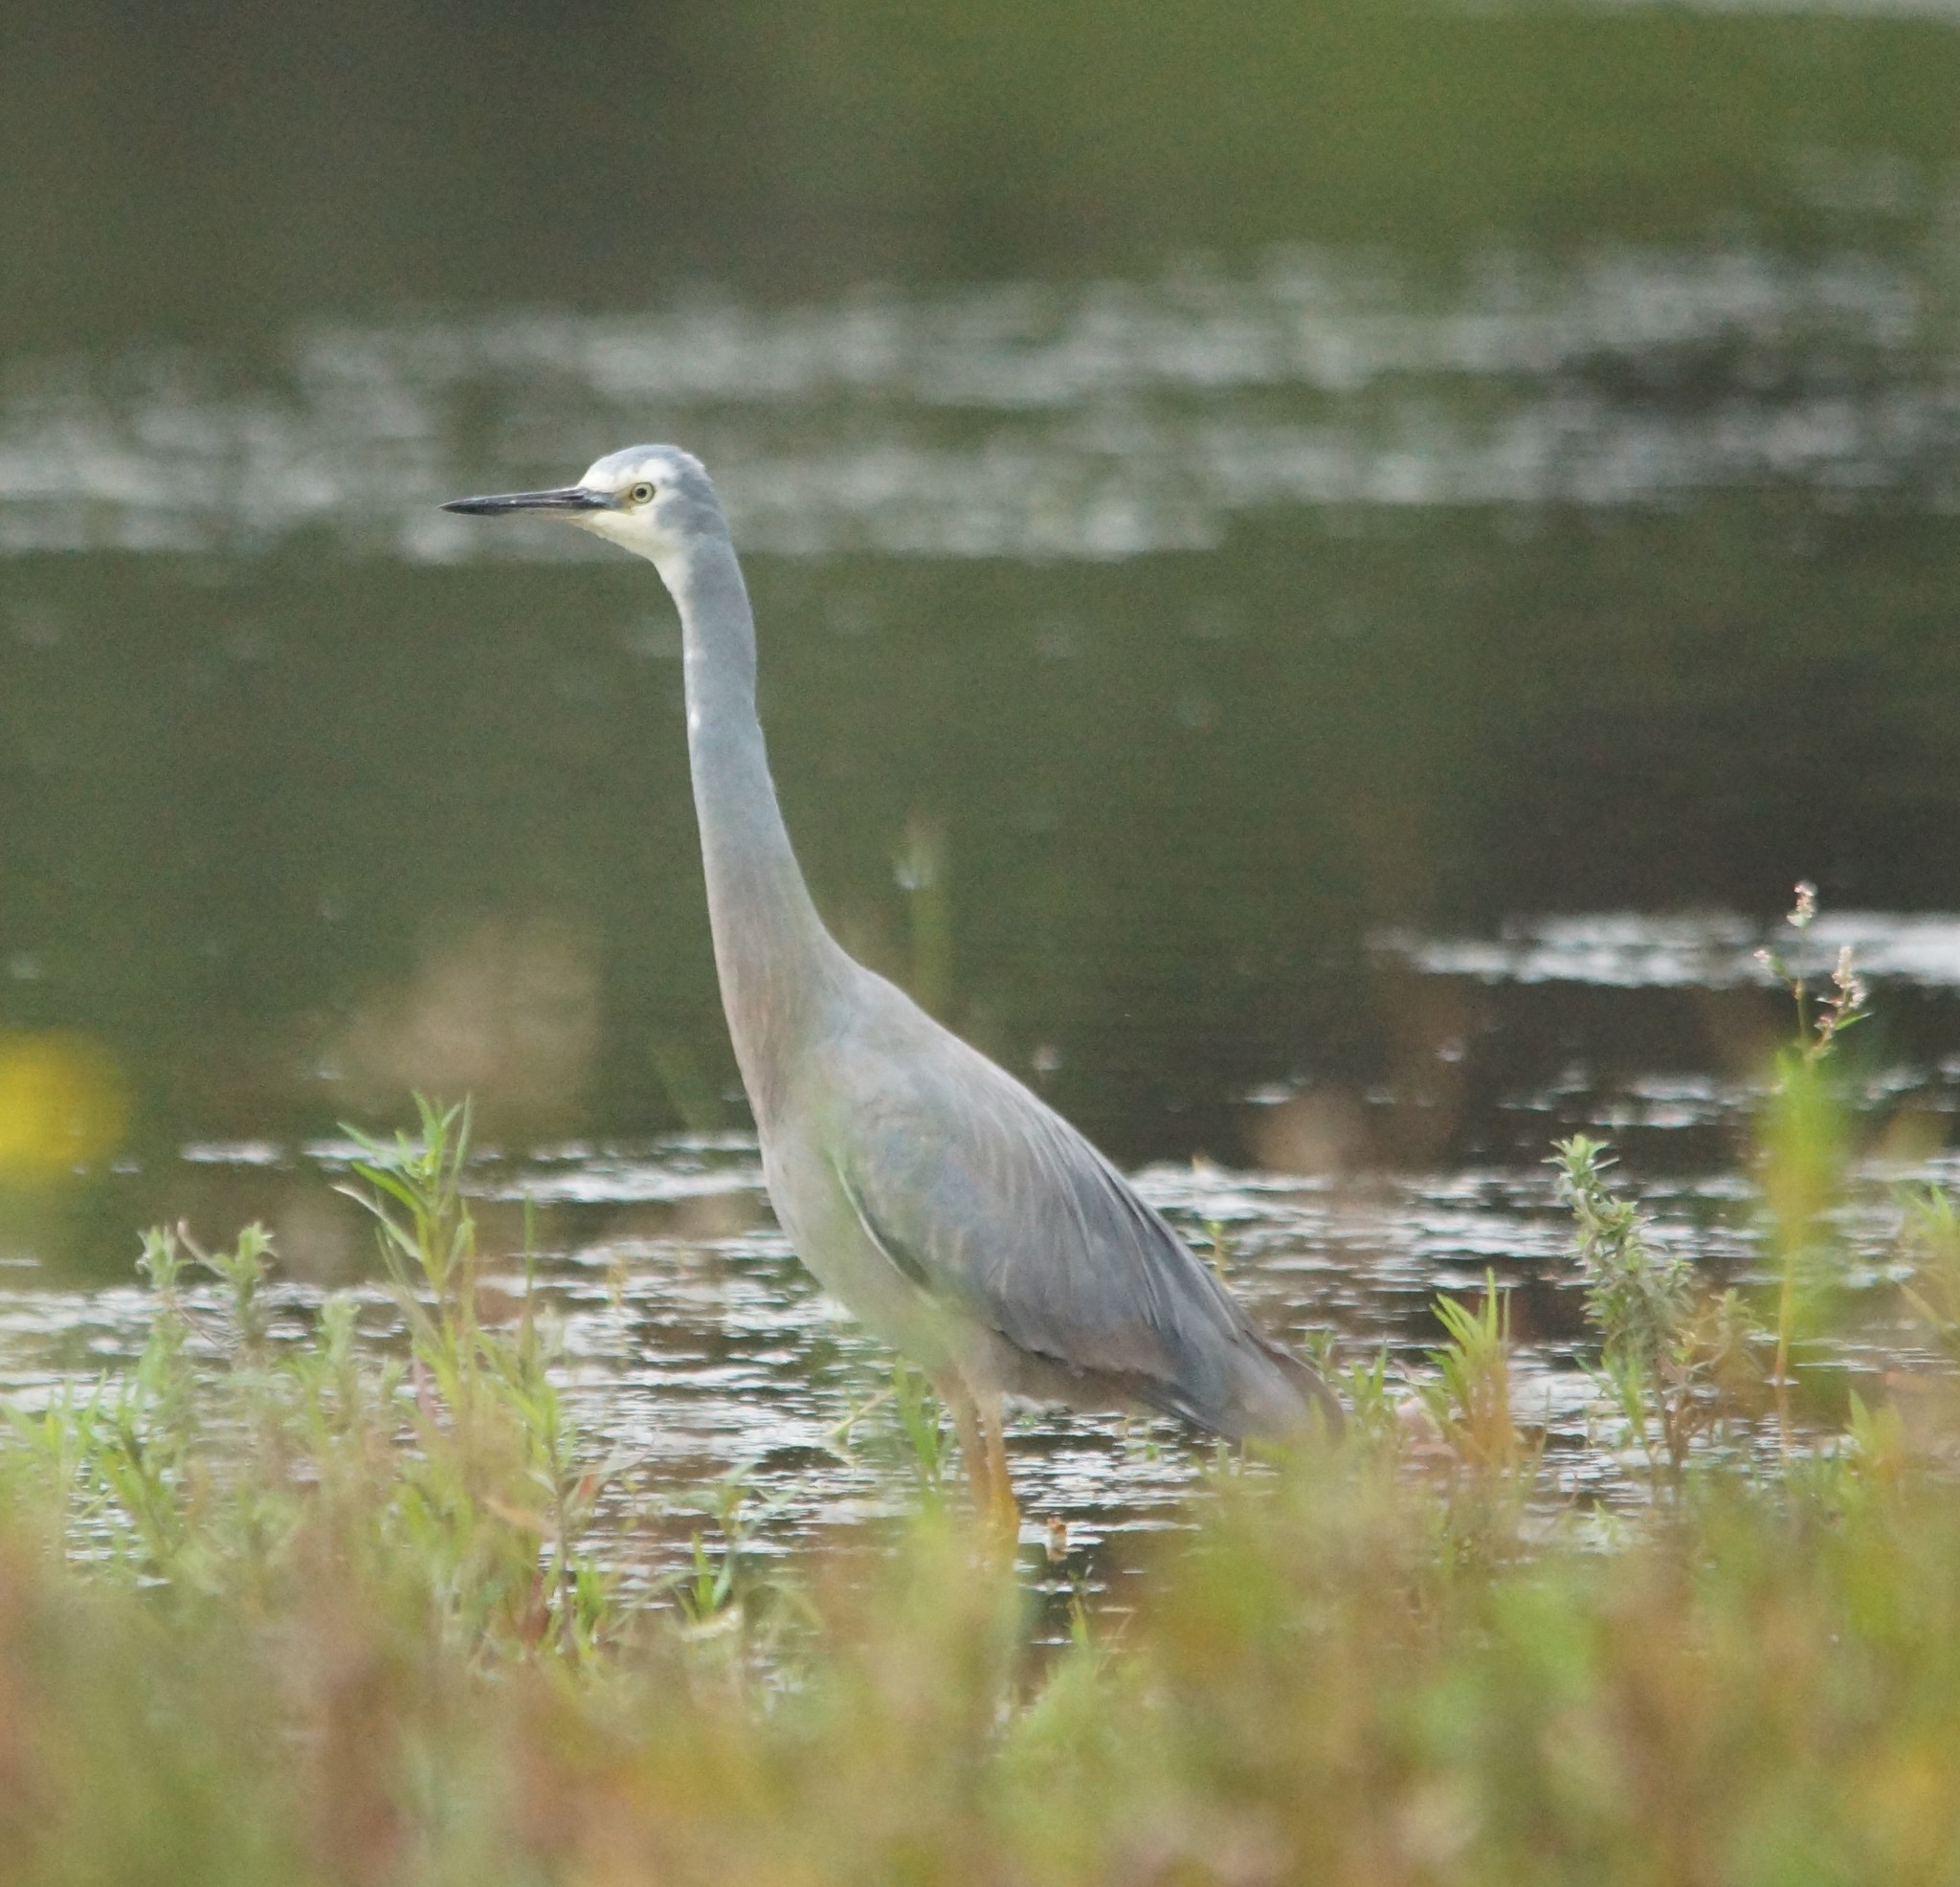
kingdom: Animalia
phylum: Chordata
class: Aves
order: Pelecaniformes
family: Ardeidae
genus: Egretta
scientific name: Egretta novaehollandiae
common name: White-faced heron
